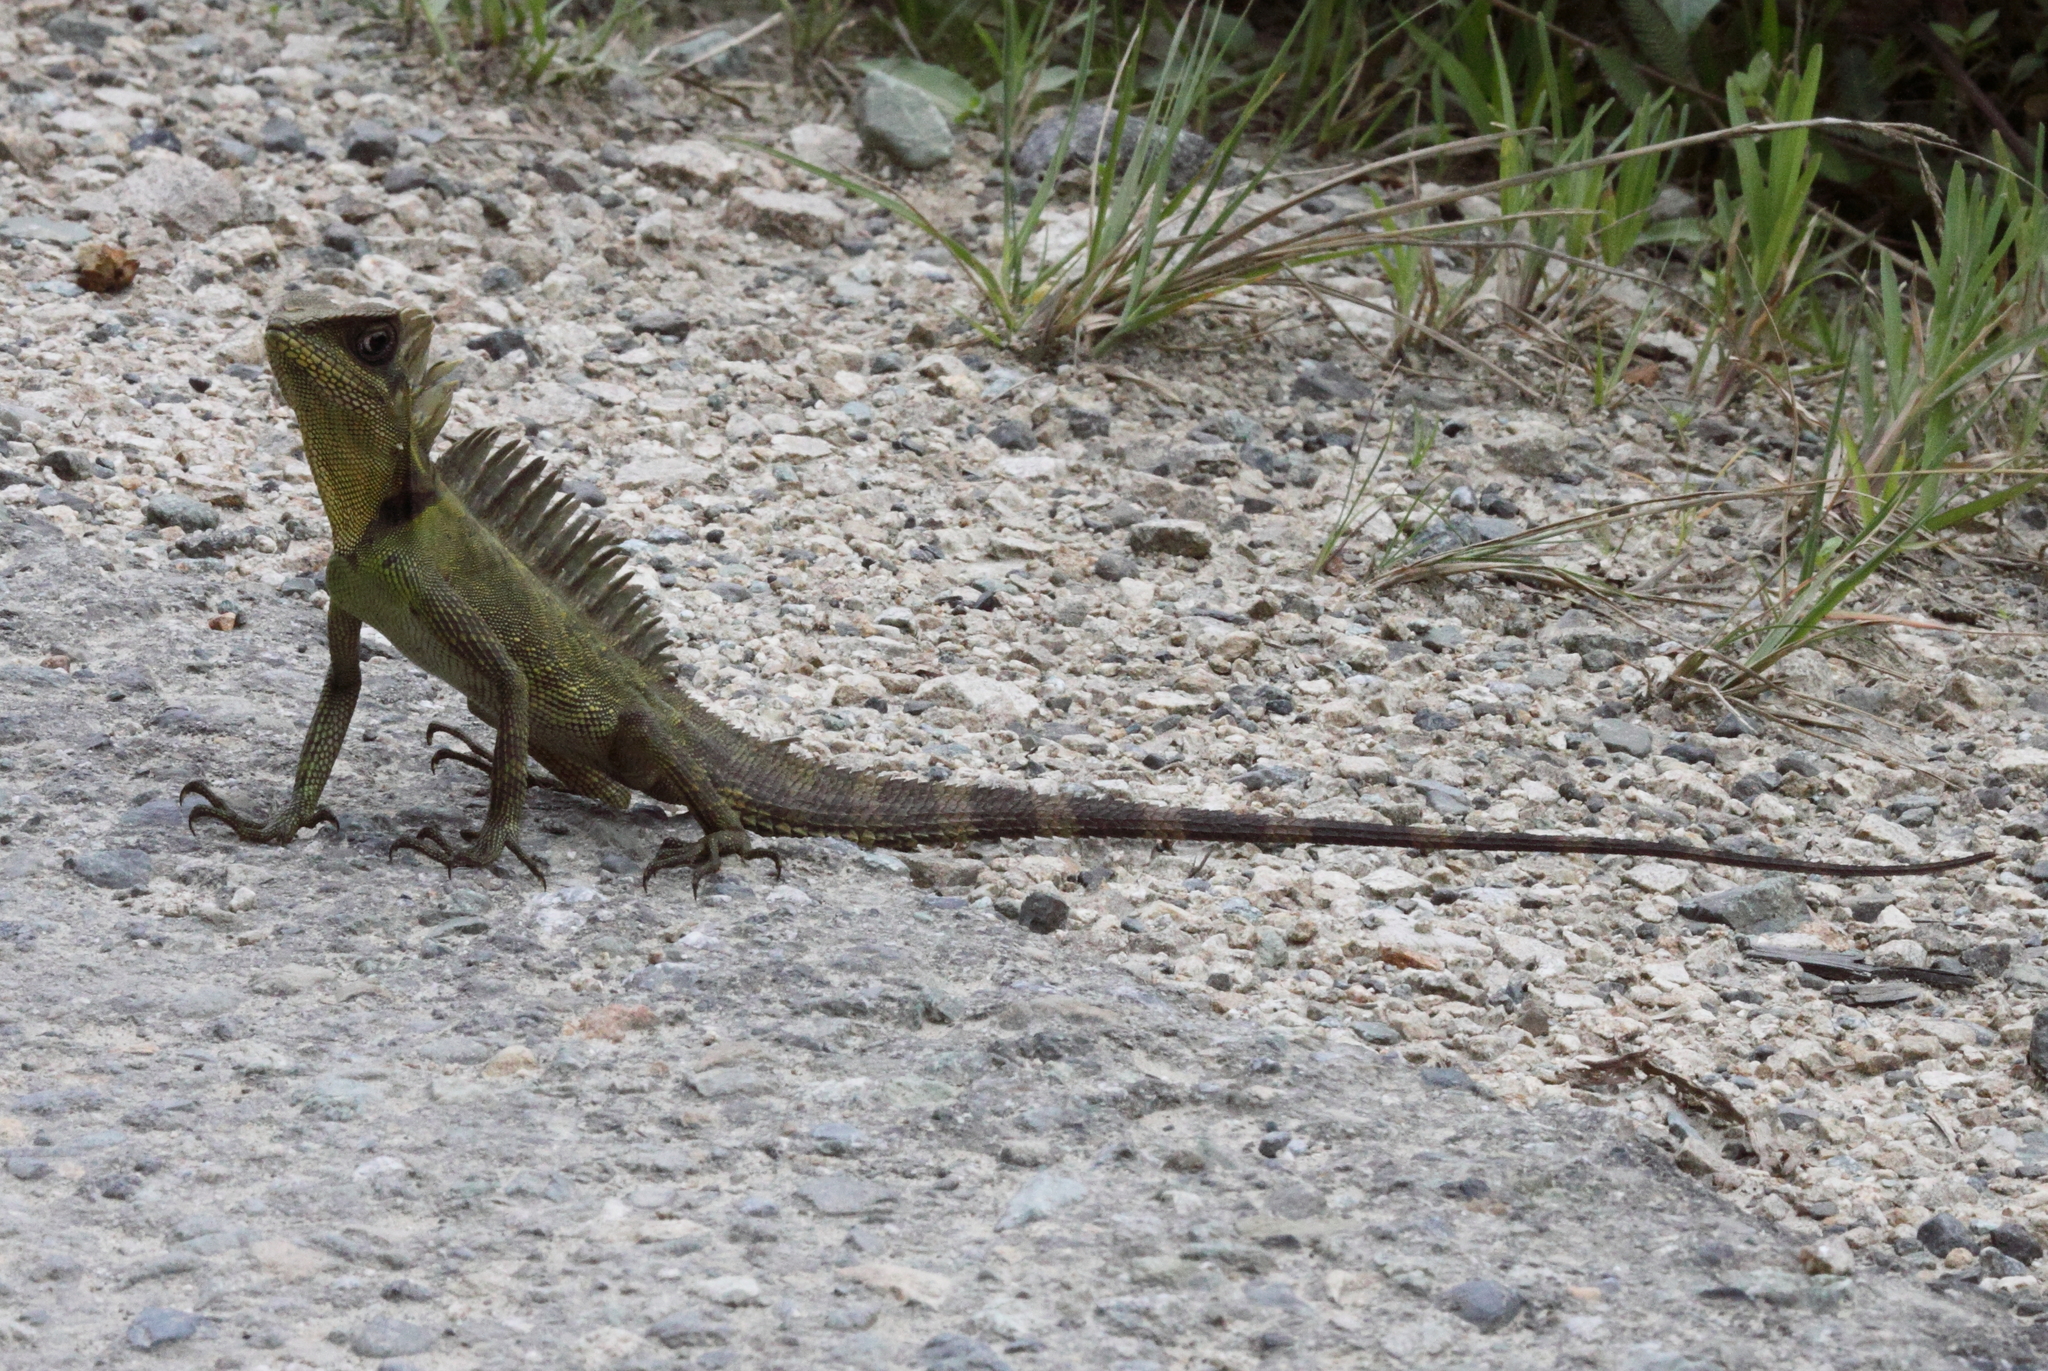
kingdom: Animalia
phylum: Chordata
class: Squamata
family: Agamidae
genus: Gonocephalus
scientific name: Gonocephalus megalepis
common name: Bleeker's forest dragon
